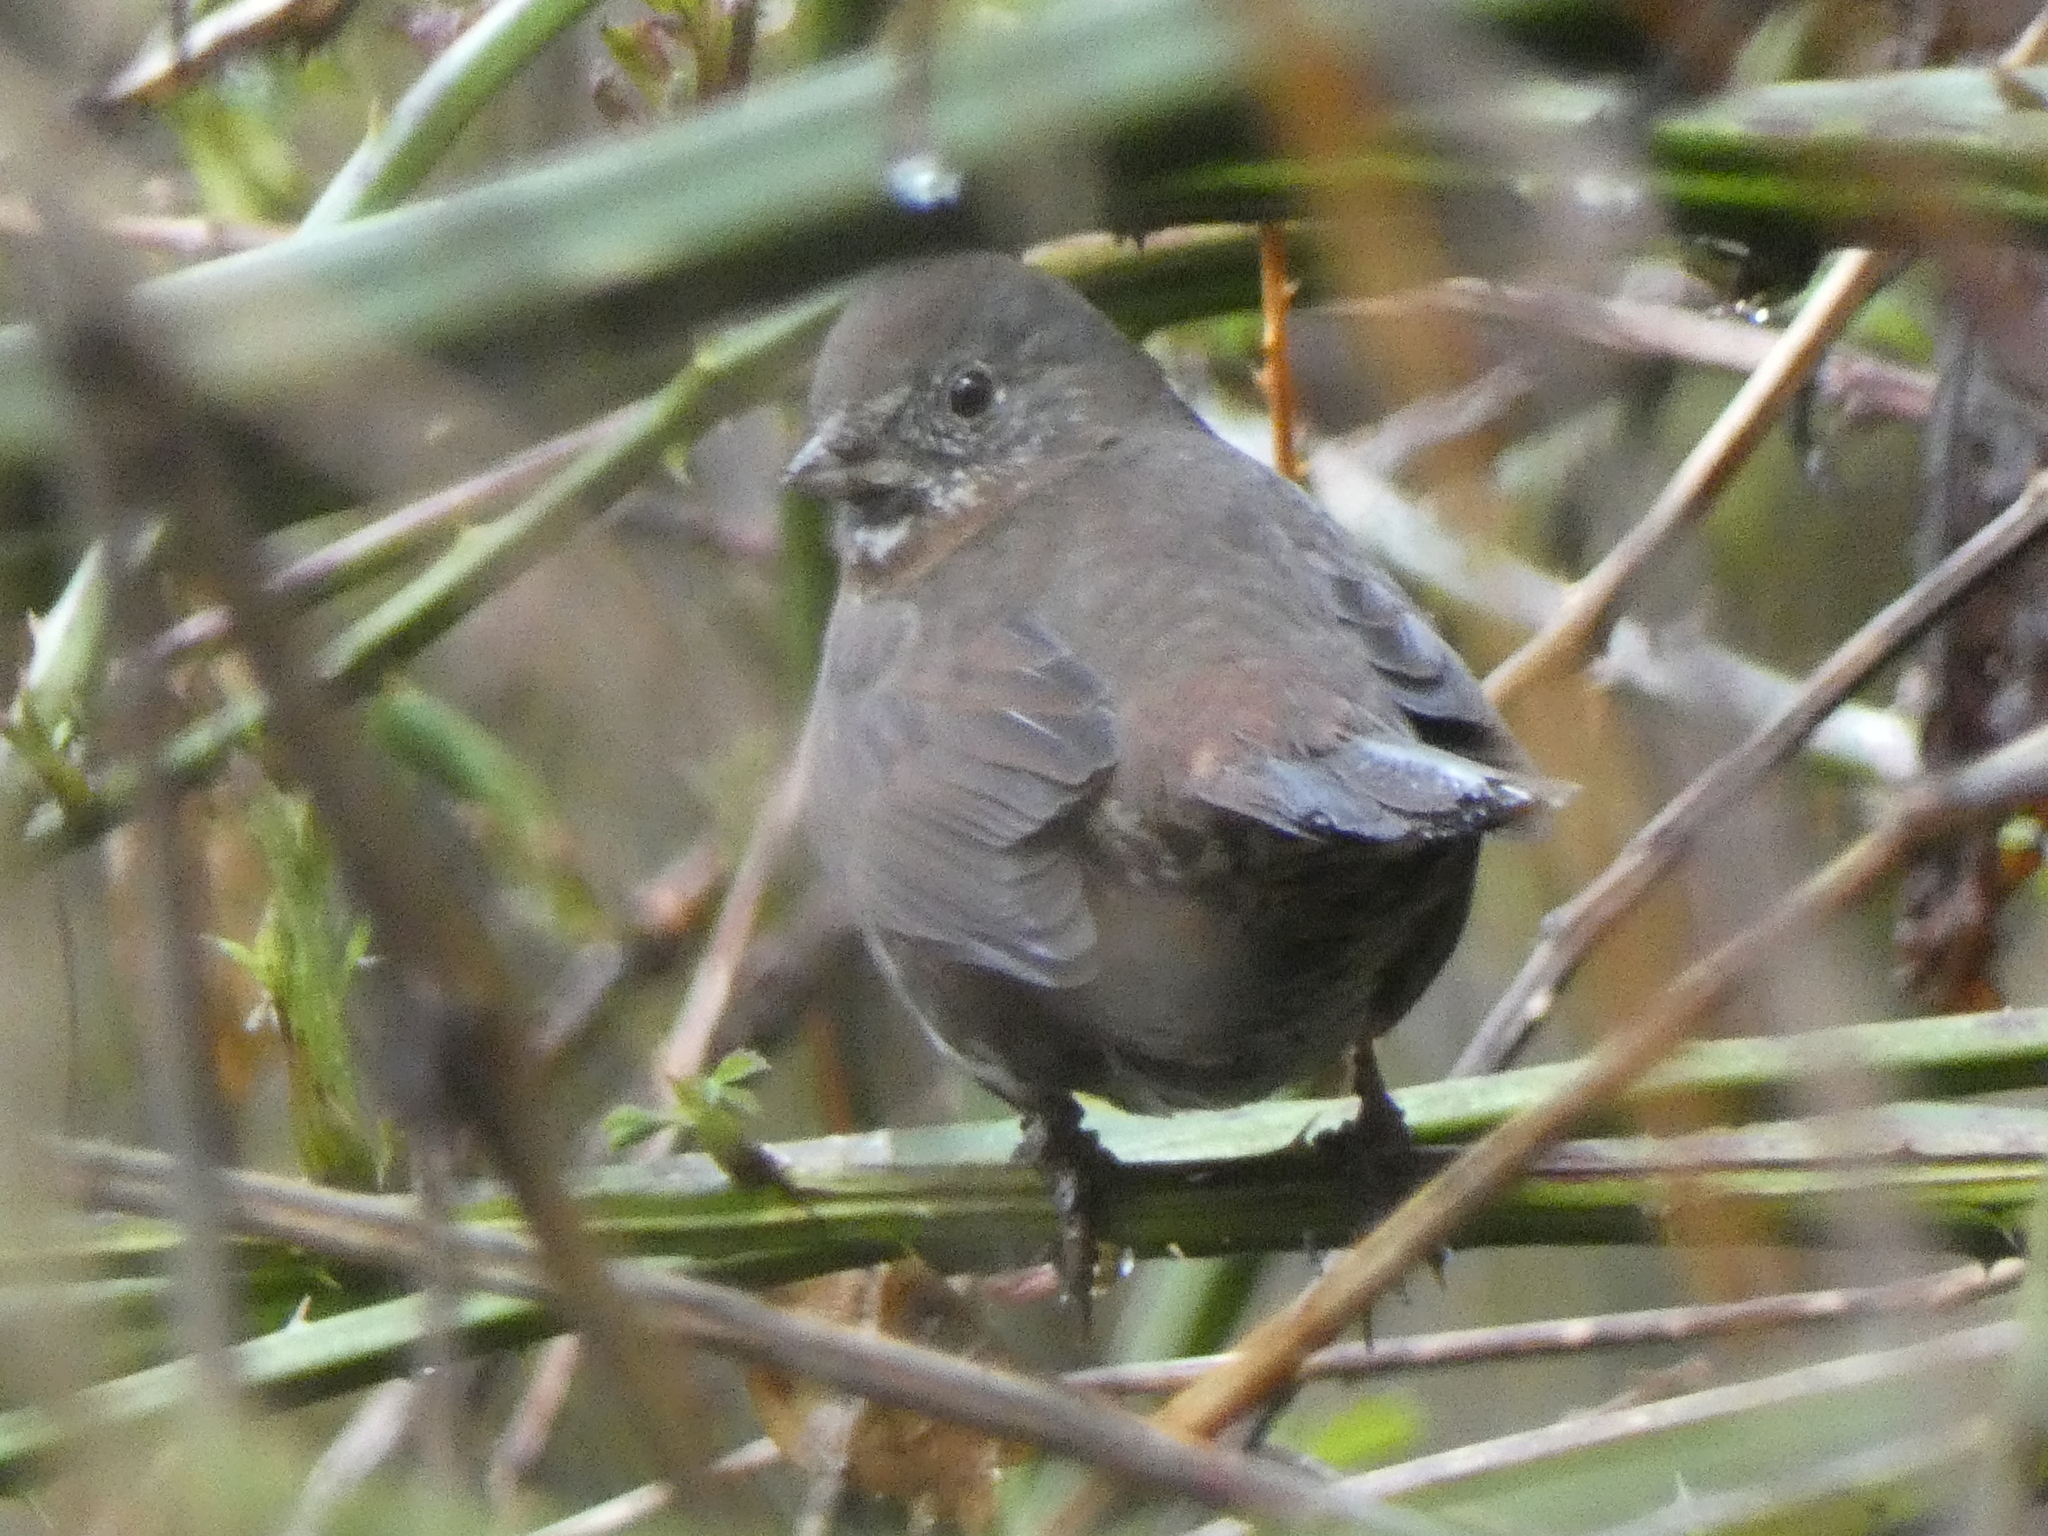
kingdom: Animalia
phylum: Chordata
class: Aves
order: Passeriformes
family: Passerellidae
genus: Passerella
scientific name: Passerella iliaca
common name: Fox sparrow
